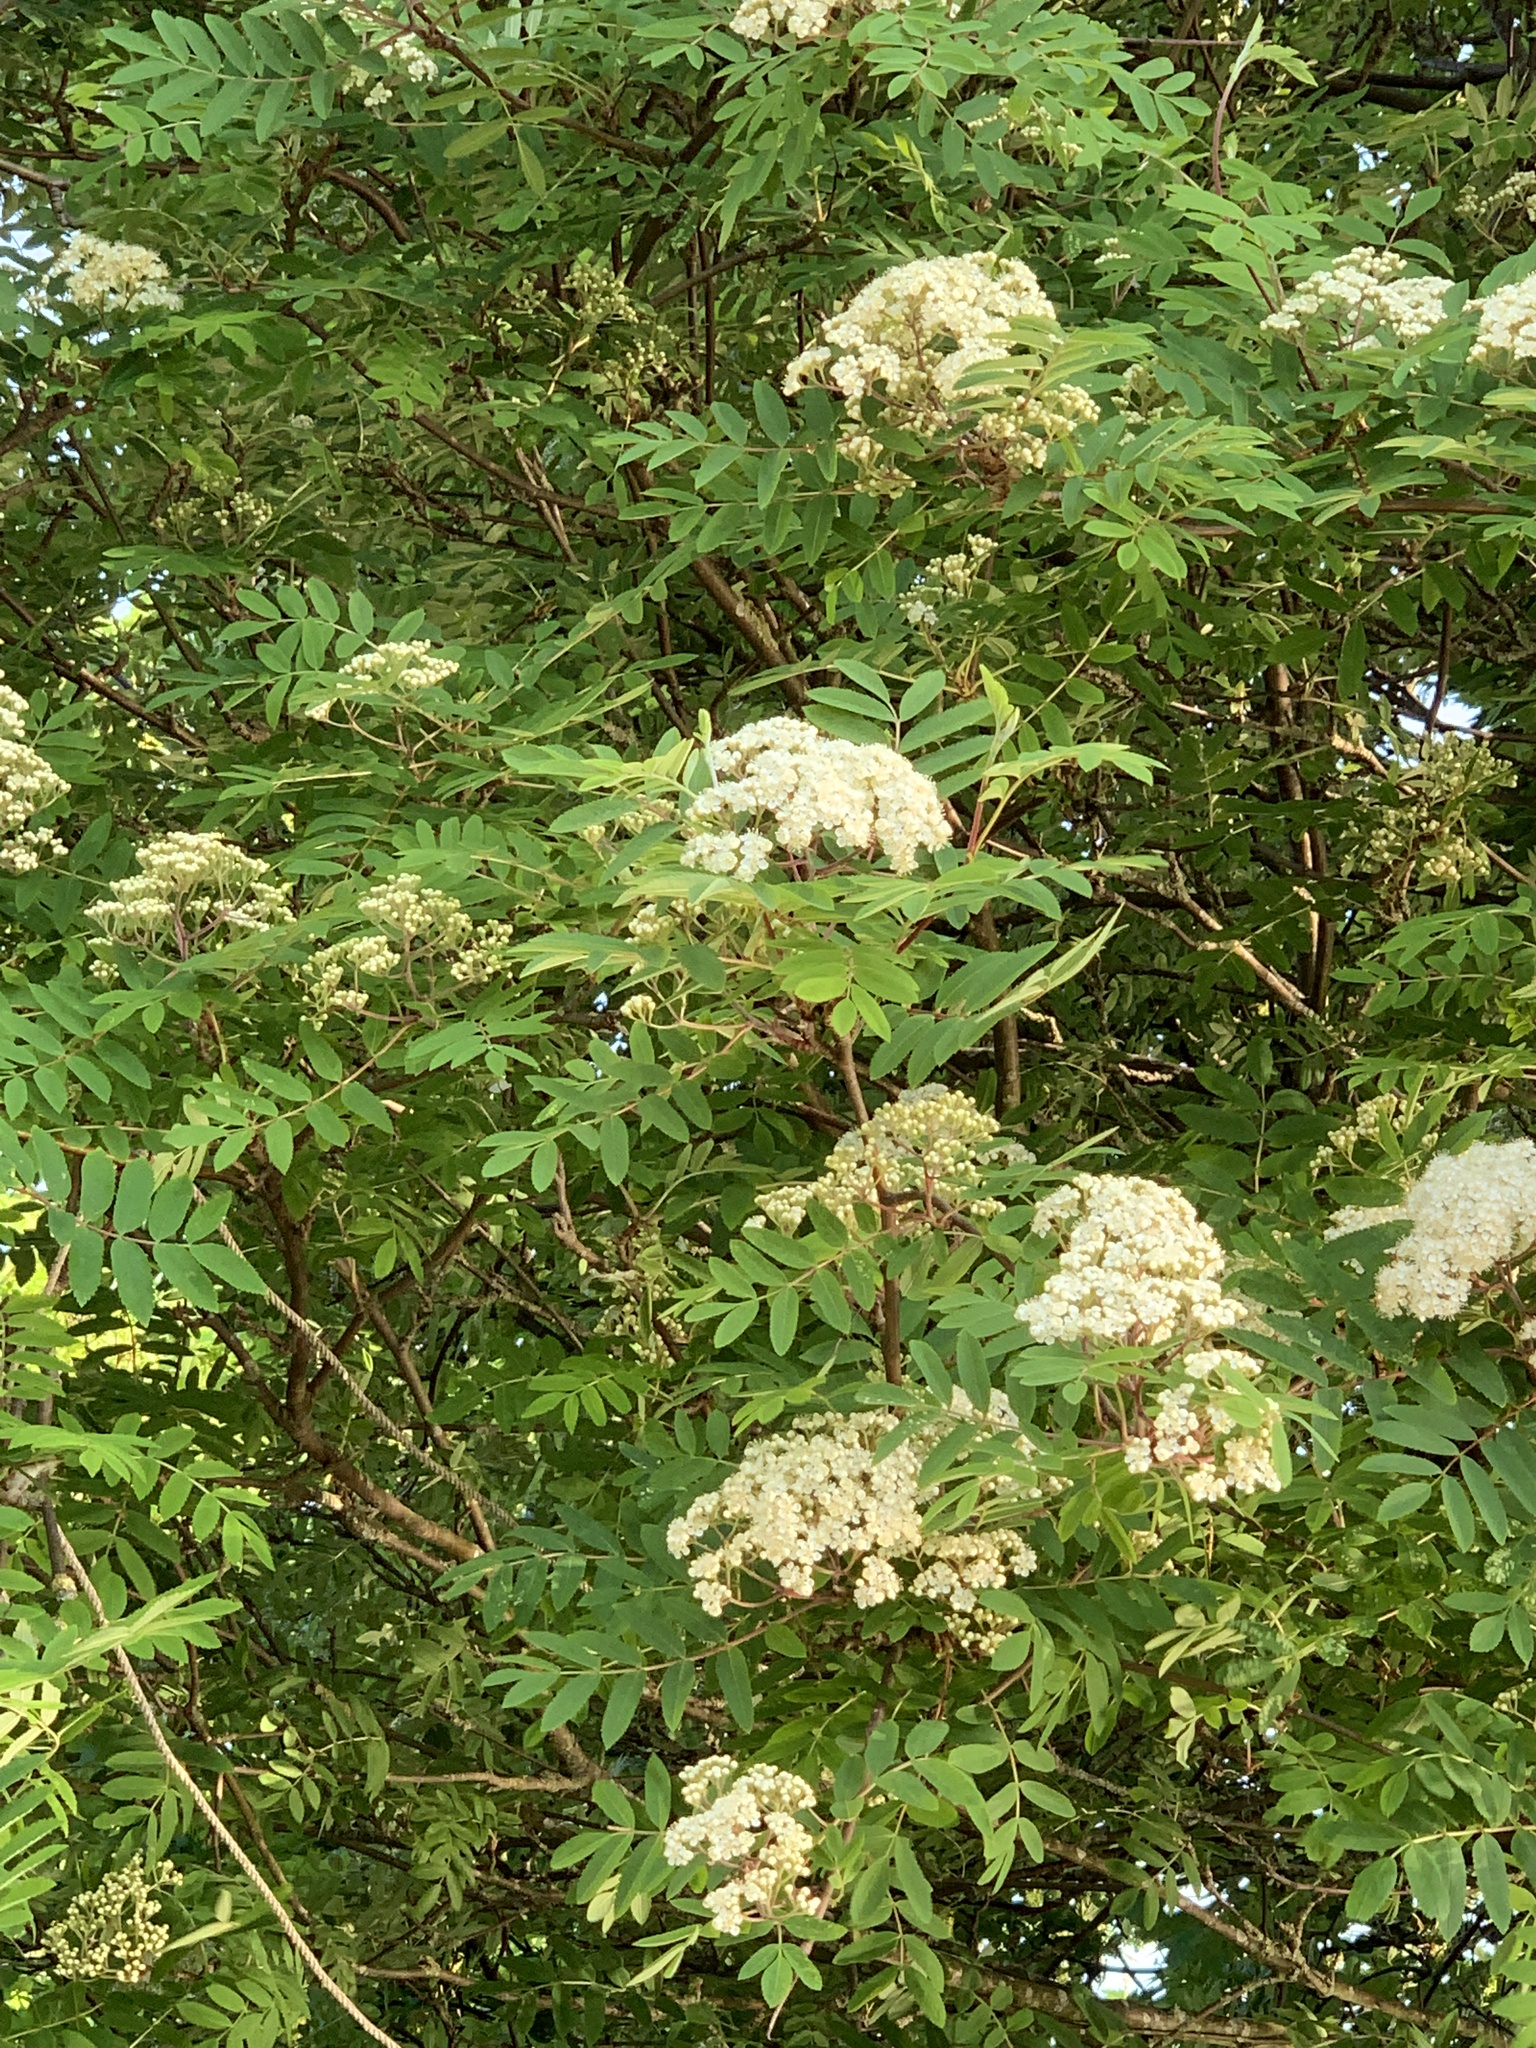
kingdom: Plantae
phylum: Tracheophyta
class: Magnoliopsida
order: Rosales
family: Rosaceae
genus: Sorbus
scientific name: Sorbus aucuparia
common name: Rowan
